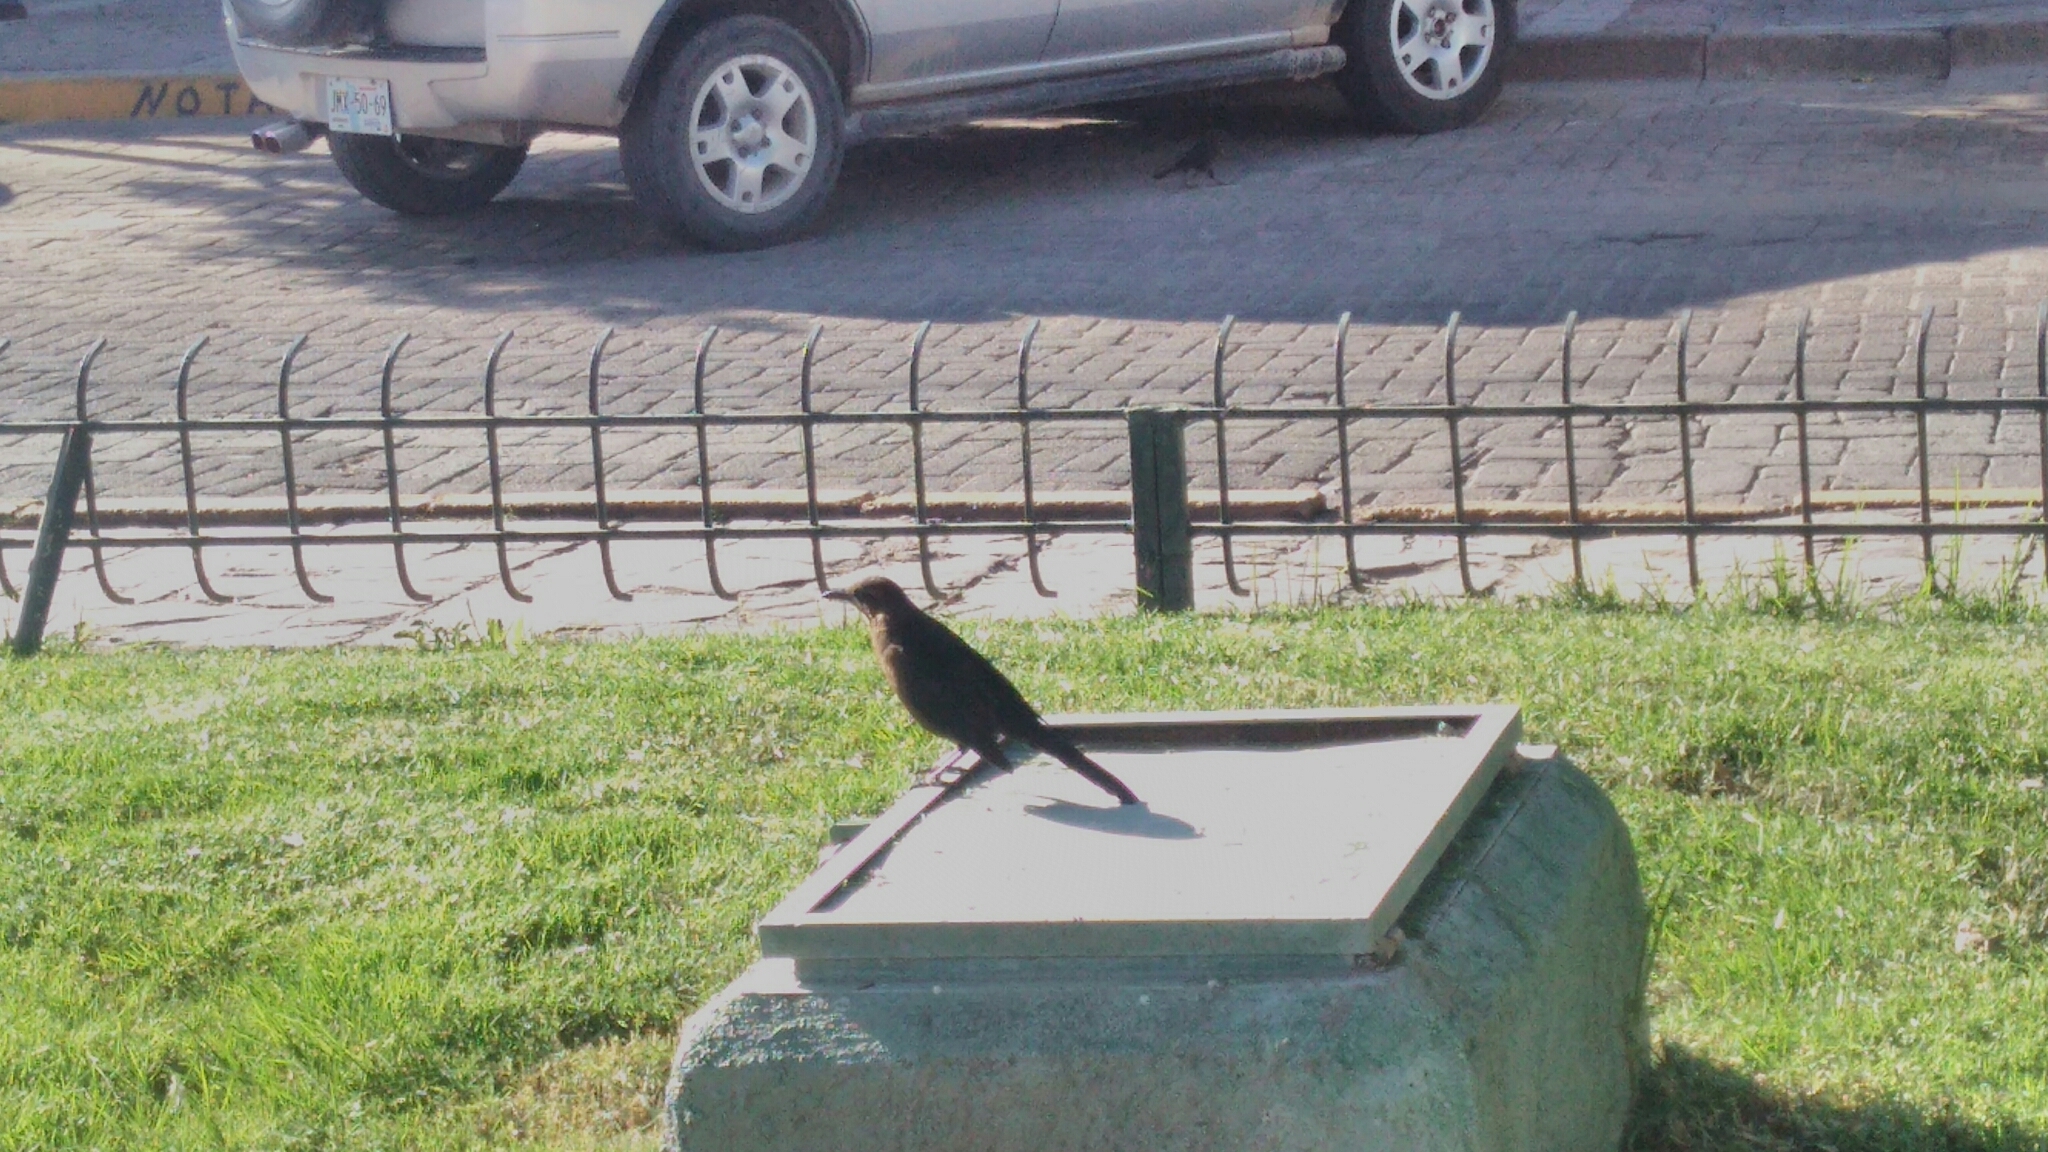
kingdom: Animalia
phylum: Chordata
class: Aves
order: Passeriformes
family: Icteridae
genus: Quiscalus
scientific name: Quiscalus mexicanus
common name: Great-tailed grackle
